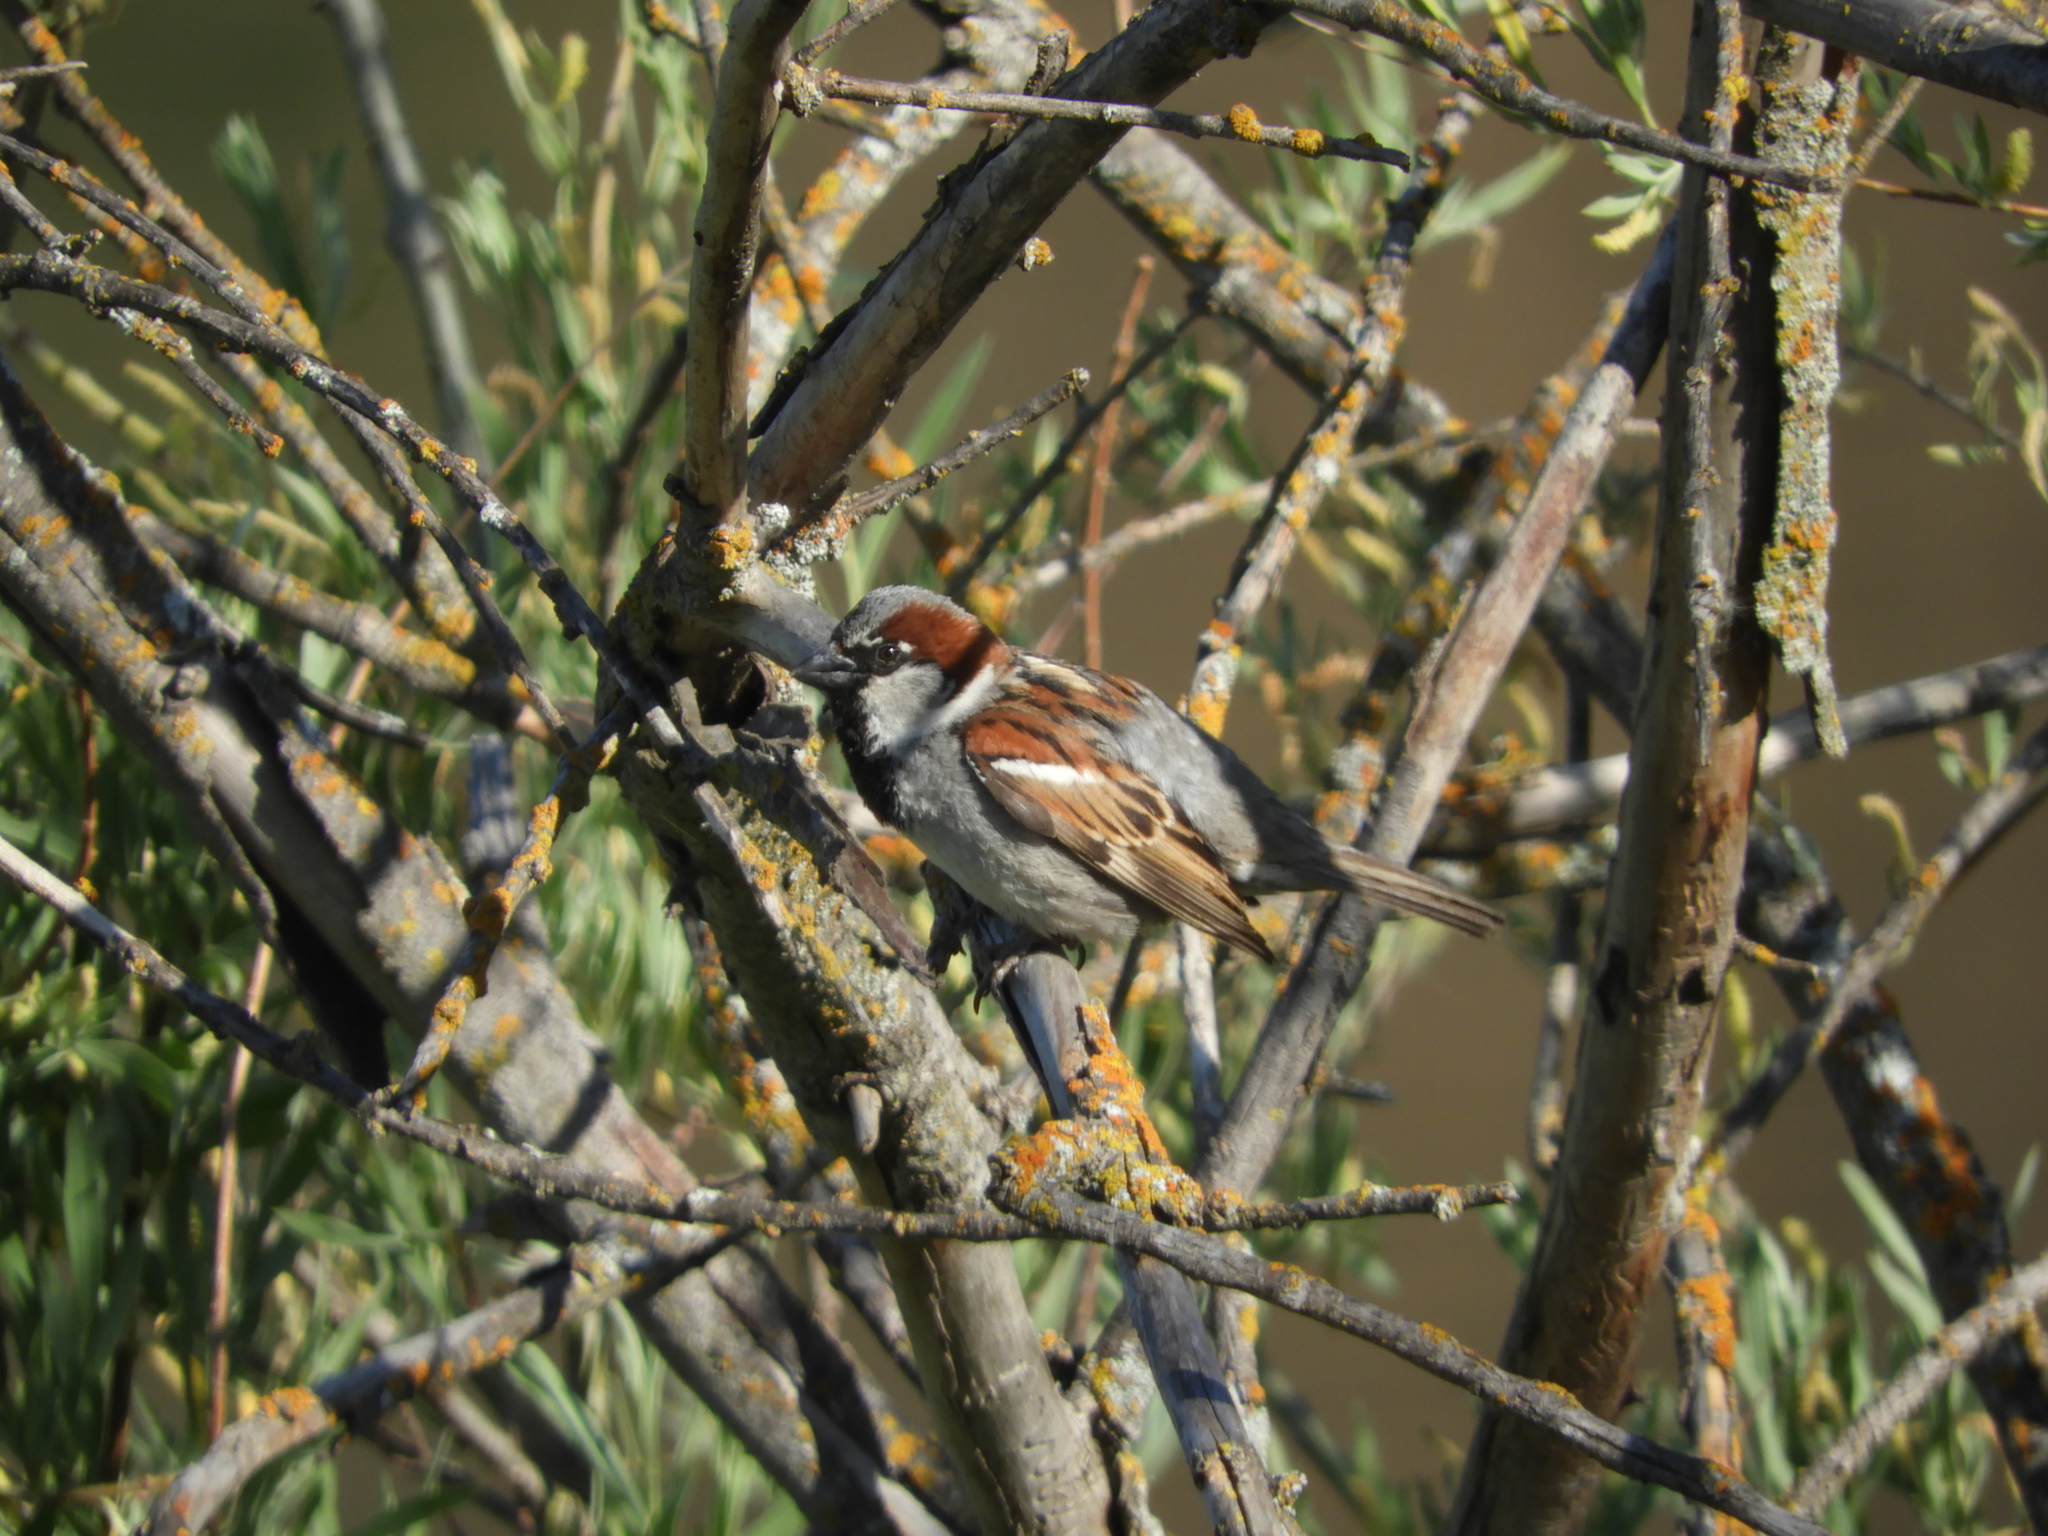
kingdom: Animalia
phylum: Chordata
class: Aves
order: Passeriformes
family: Passeridae
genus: Passer
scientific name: Passer domesticus
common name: House sparrow
